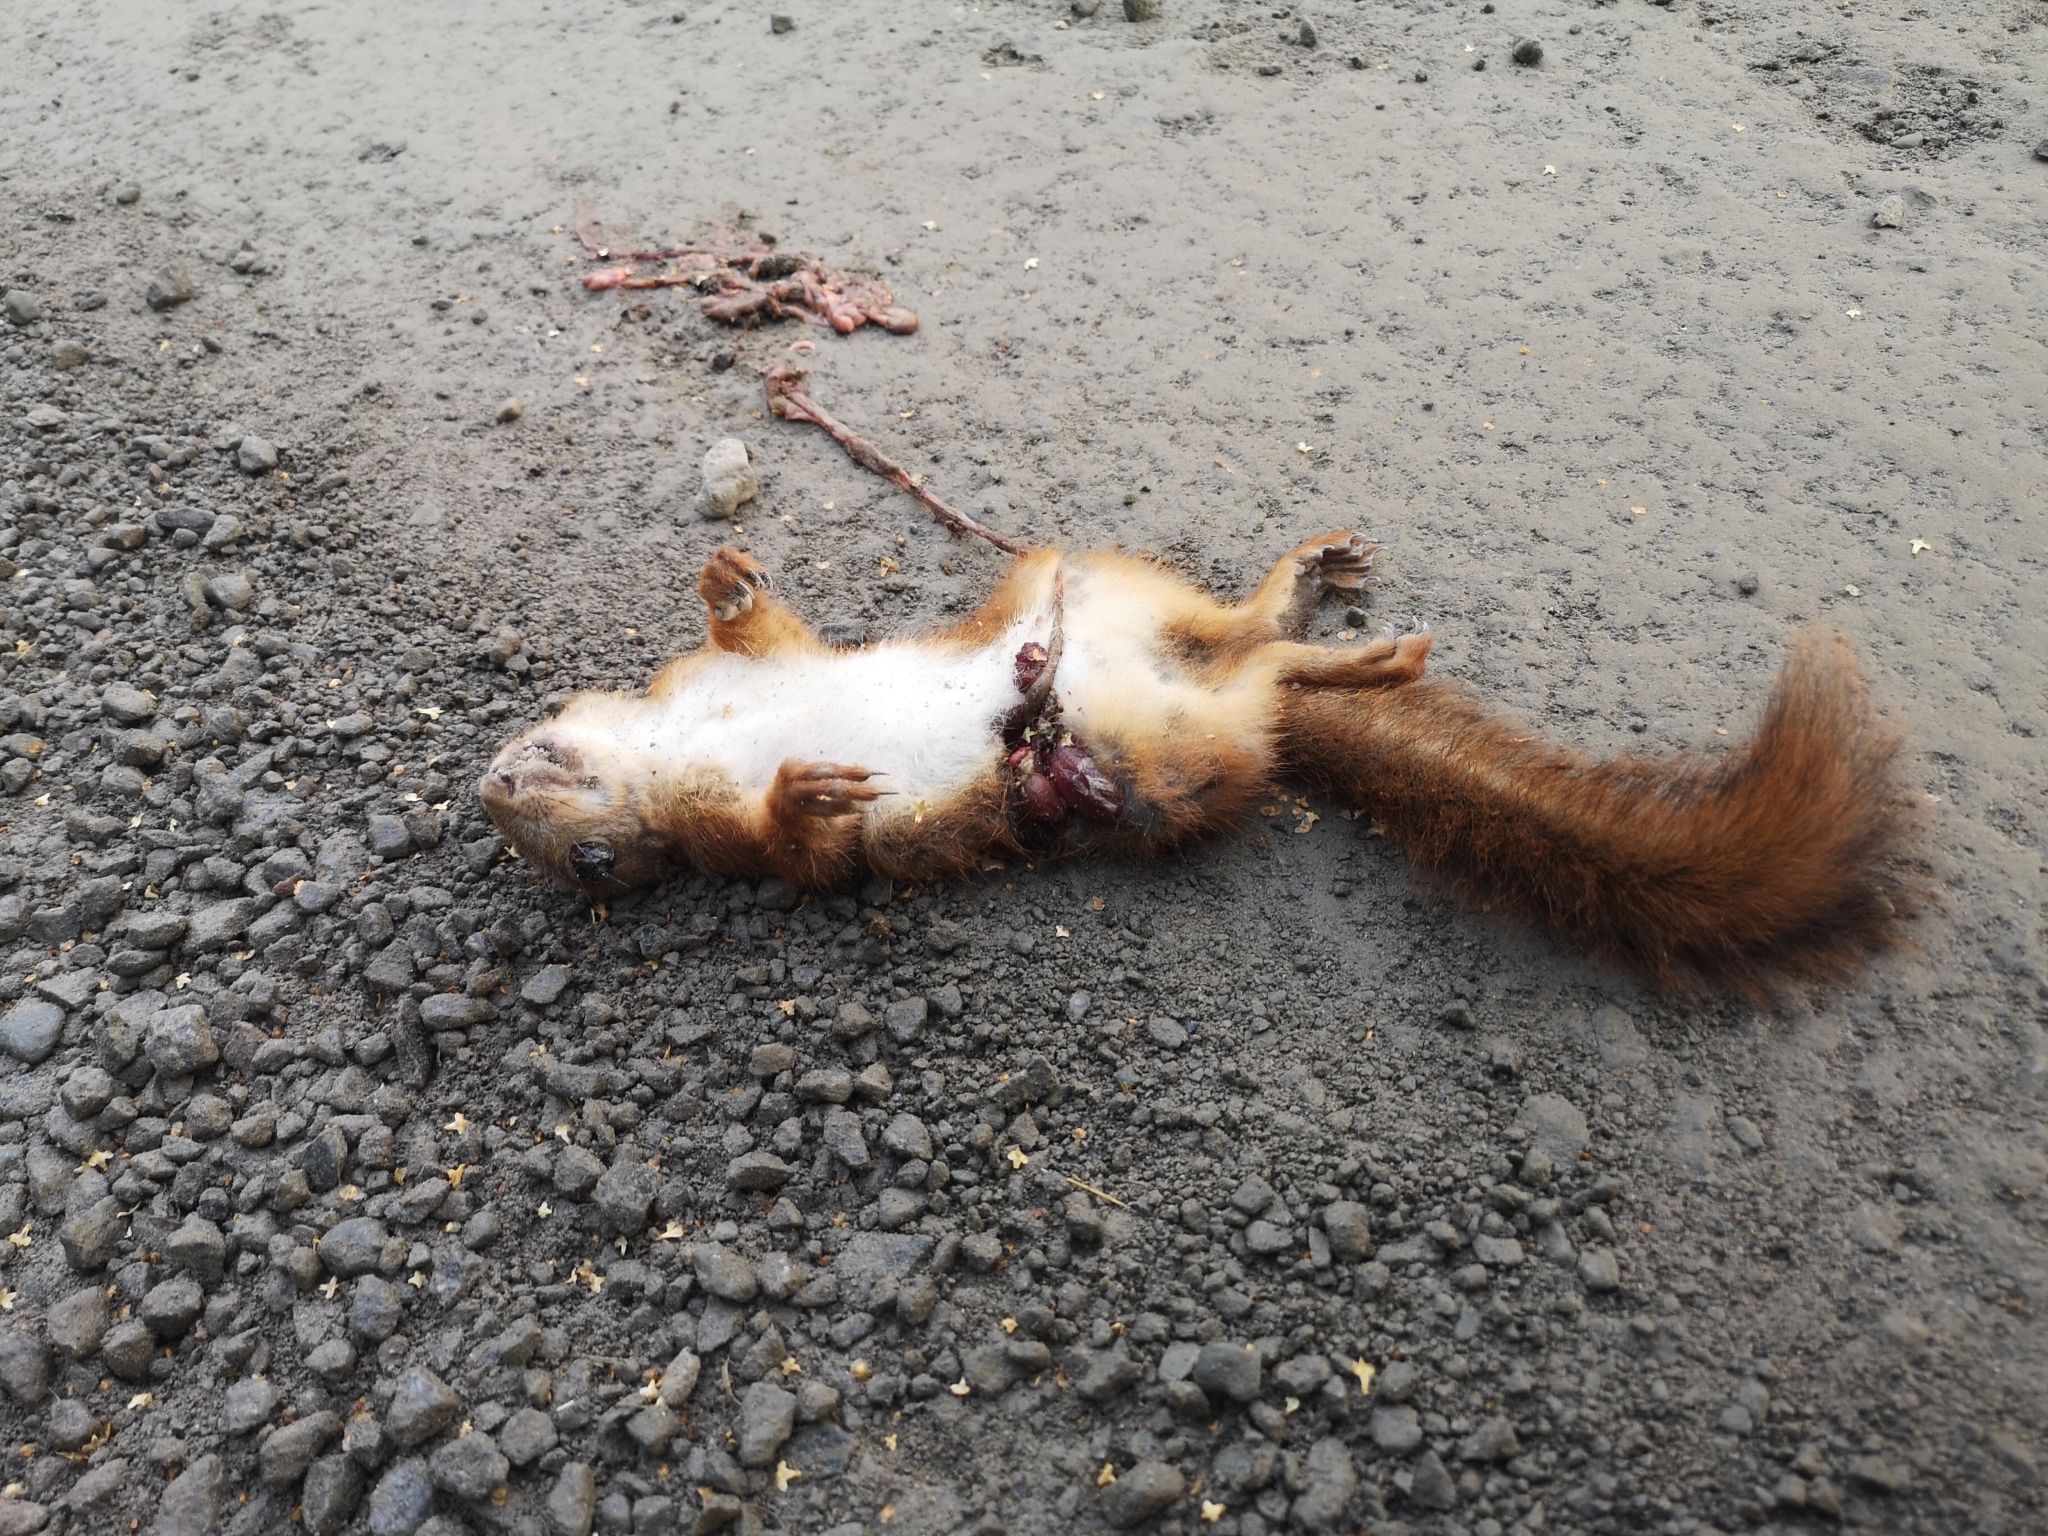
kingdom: Animalia
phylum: Chordata
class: Mammalia
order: Rodentia
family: Sciuridae
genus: Sciurus
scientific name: Sciurus vulgaris
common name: Eurasian red squirrel
